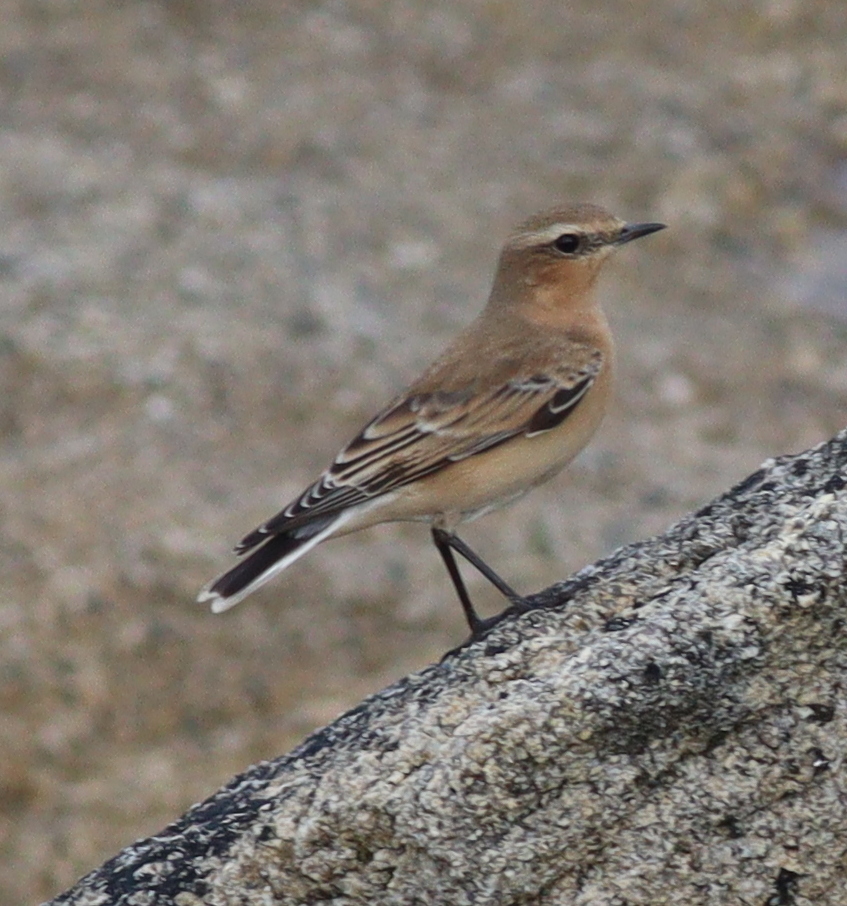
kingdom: Animalia
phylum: Chordata
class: Aves
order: Passeriformes
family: Muscicapidae
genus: Oenanthe
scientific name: Oenanthe oenanthe
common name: Northern wheatear
